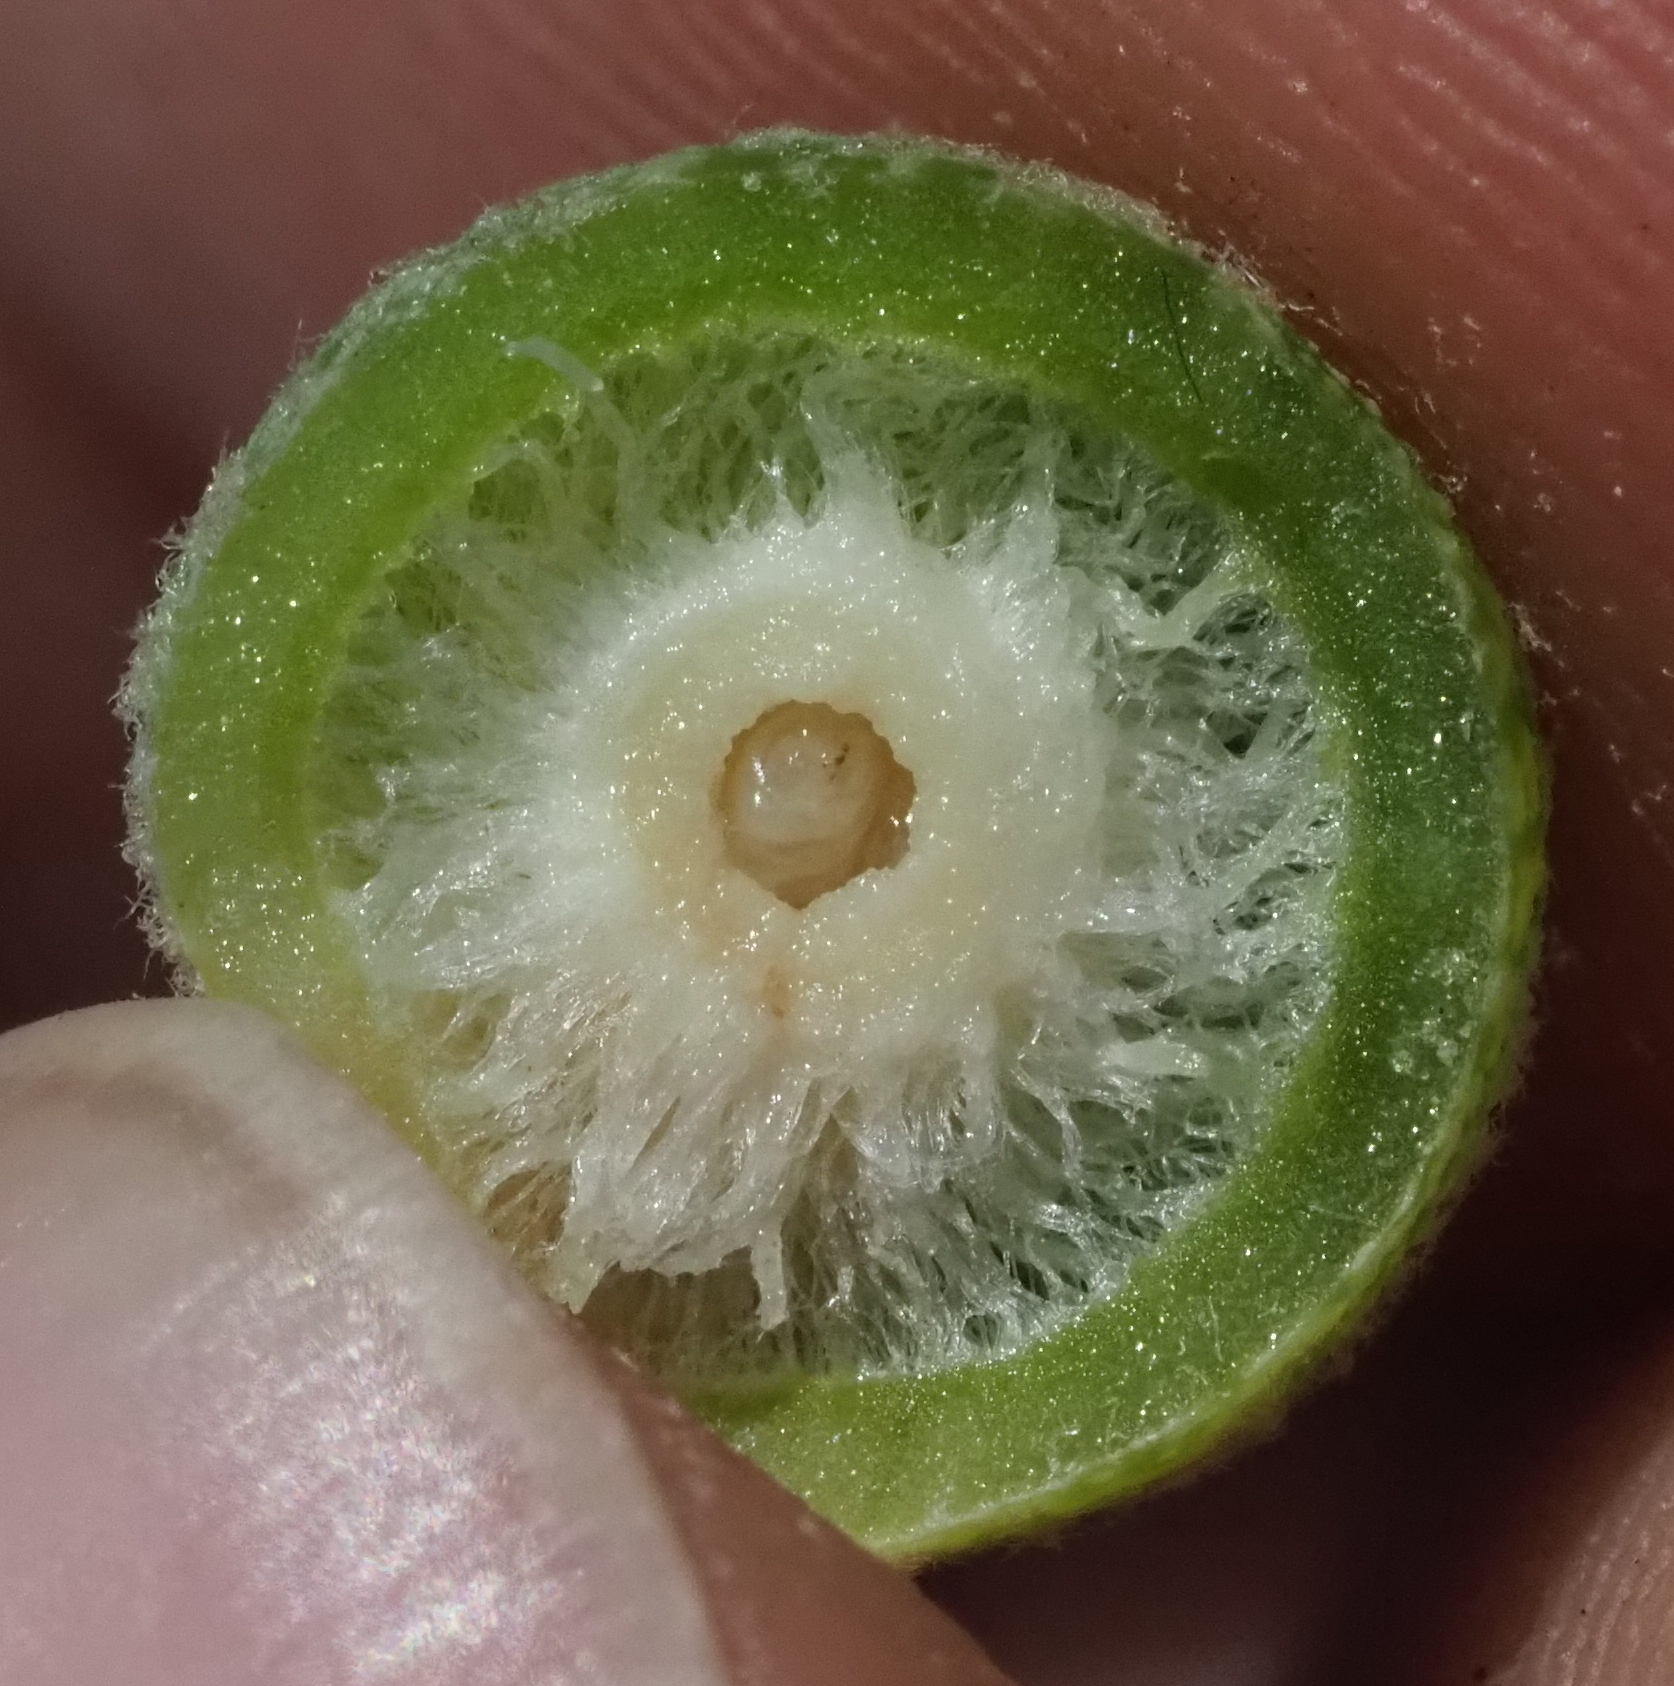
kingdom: Animalia
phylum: Arthropoda
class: Insecta
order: Hymenoptera
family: Cynipidae
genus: Cynips
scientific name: Cynips
